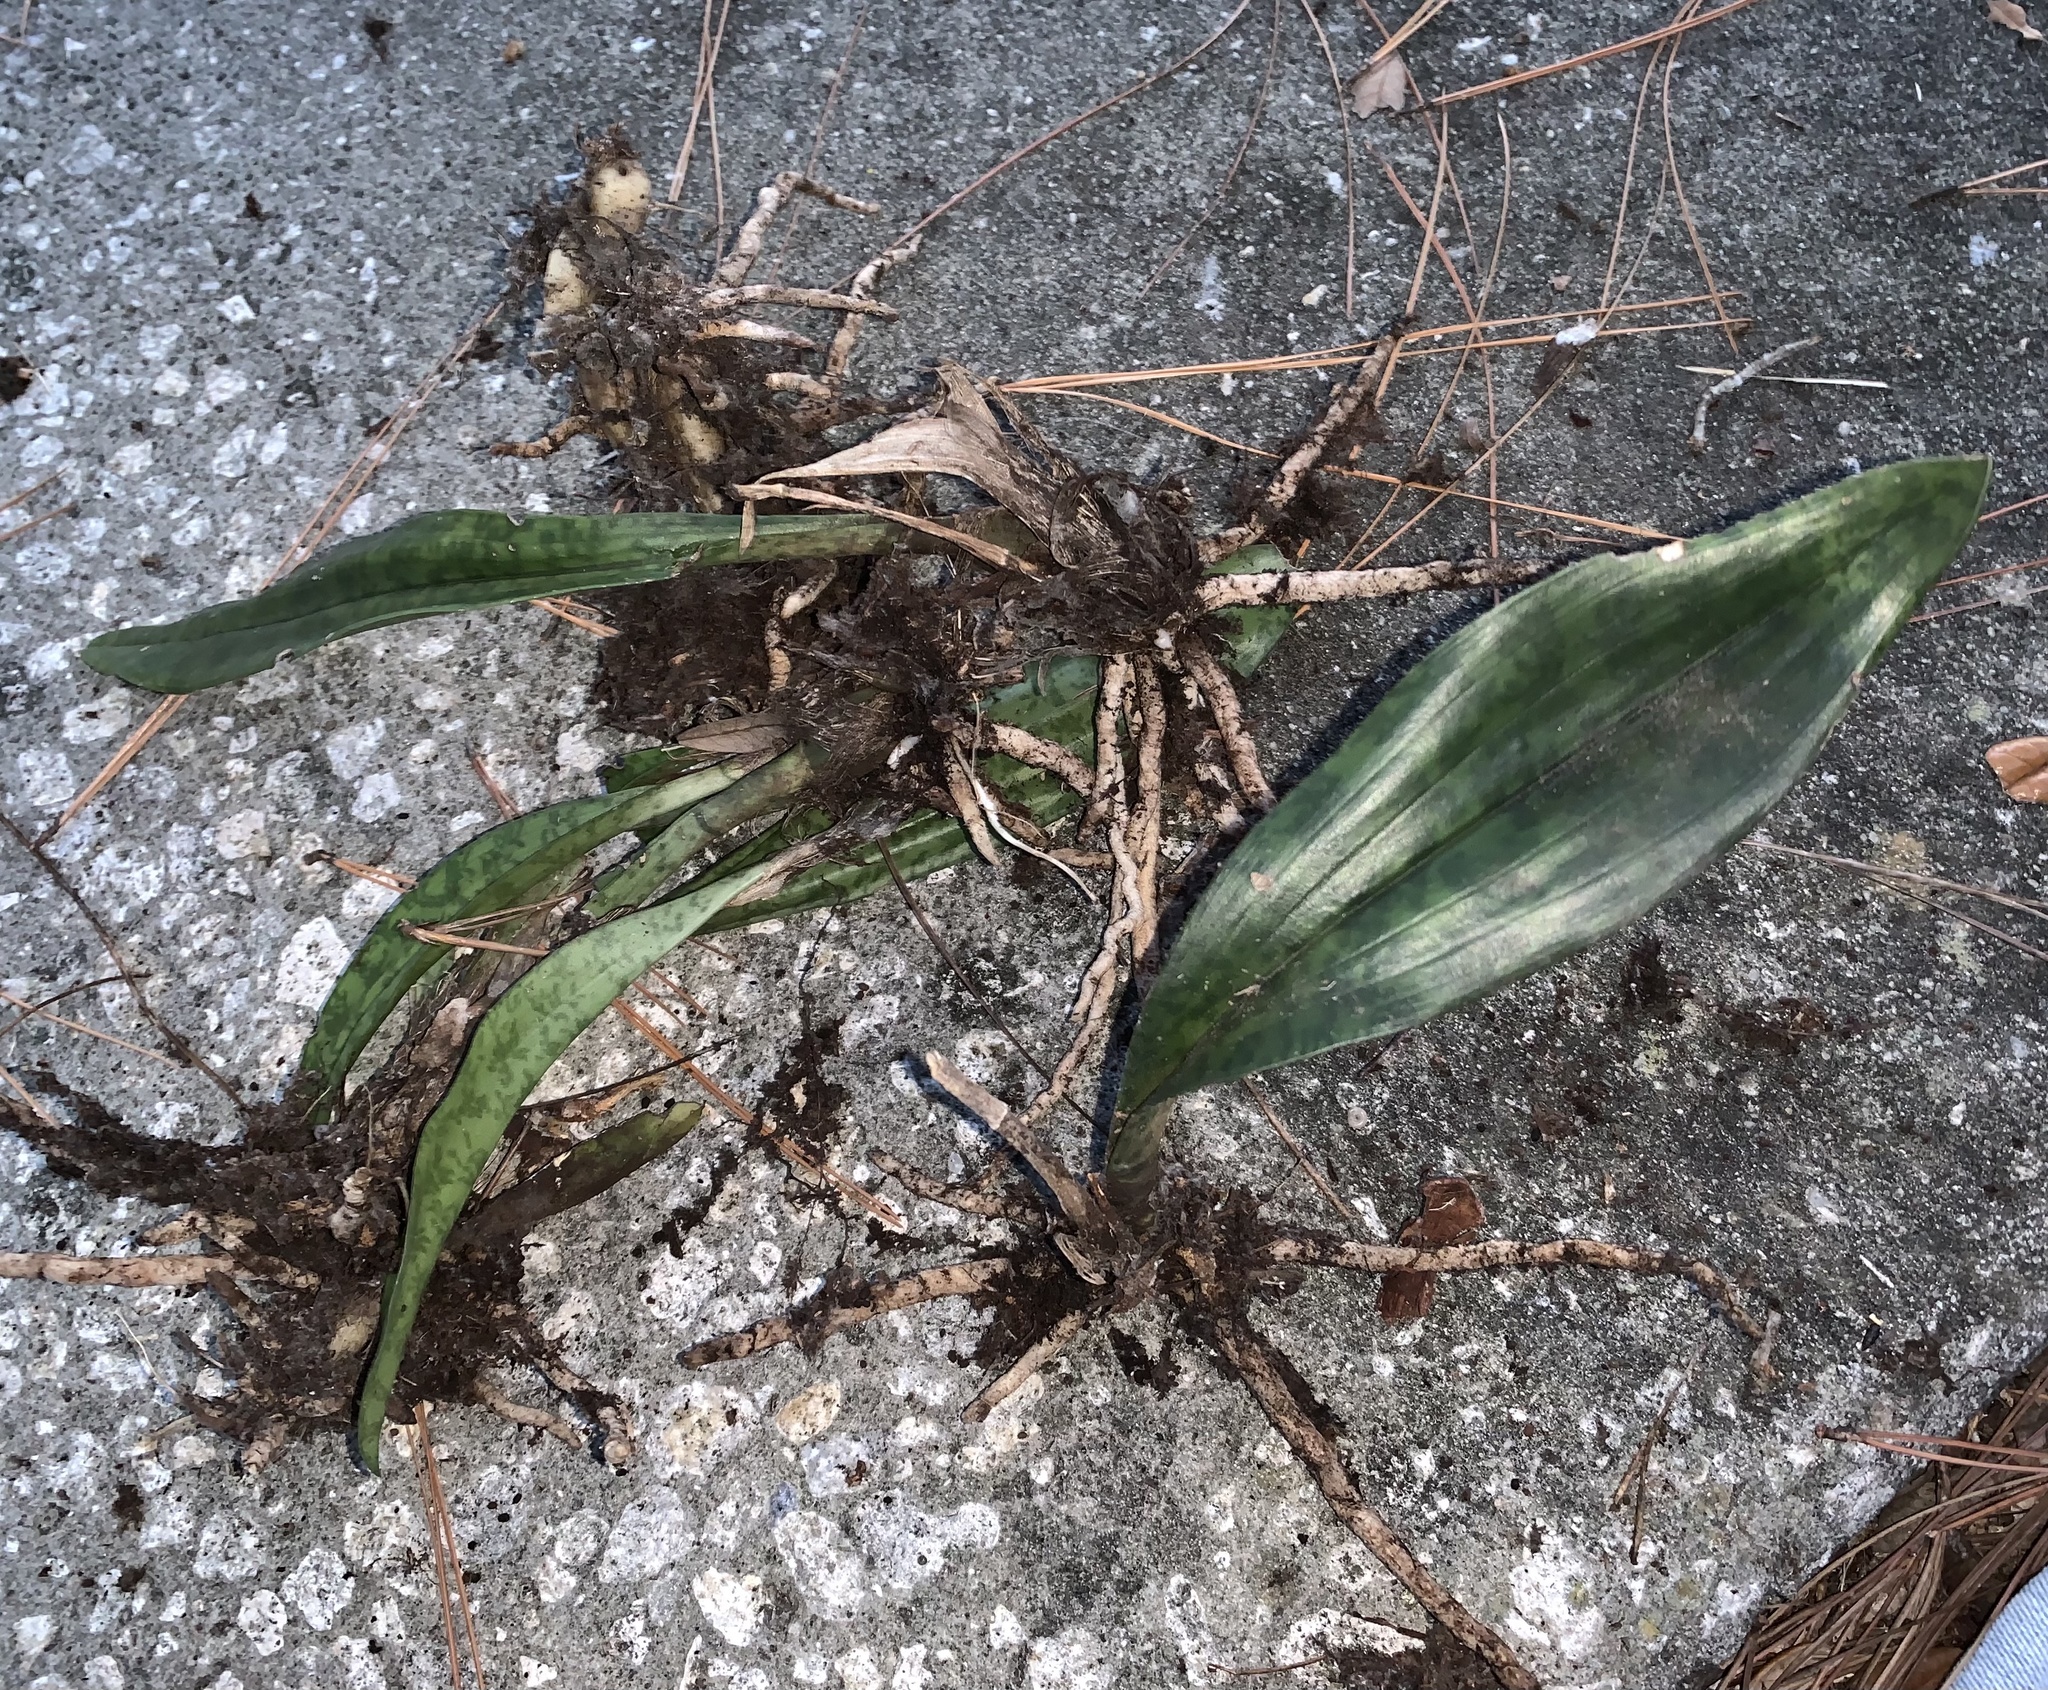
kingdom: Plantae
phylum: Tracheophyta
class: Liliopsida
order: Asparagales
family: Orchidaceae
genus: Eulophia
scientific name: Eulophia maculata
